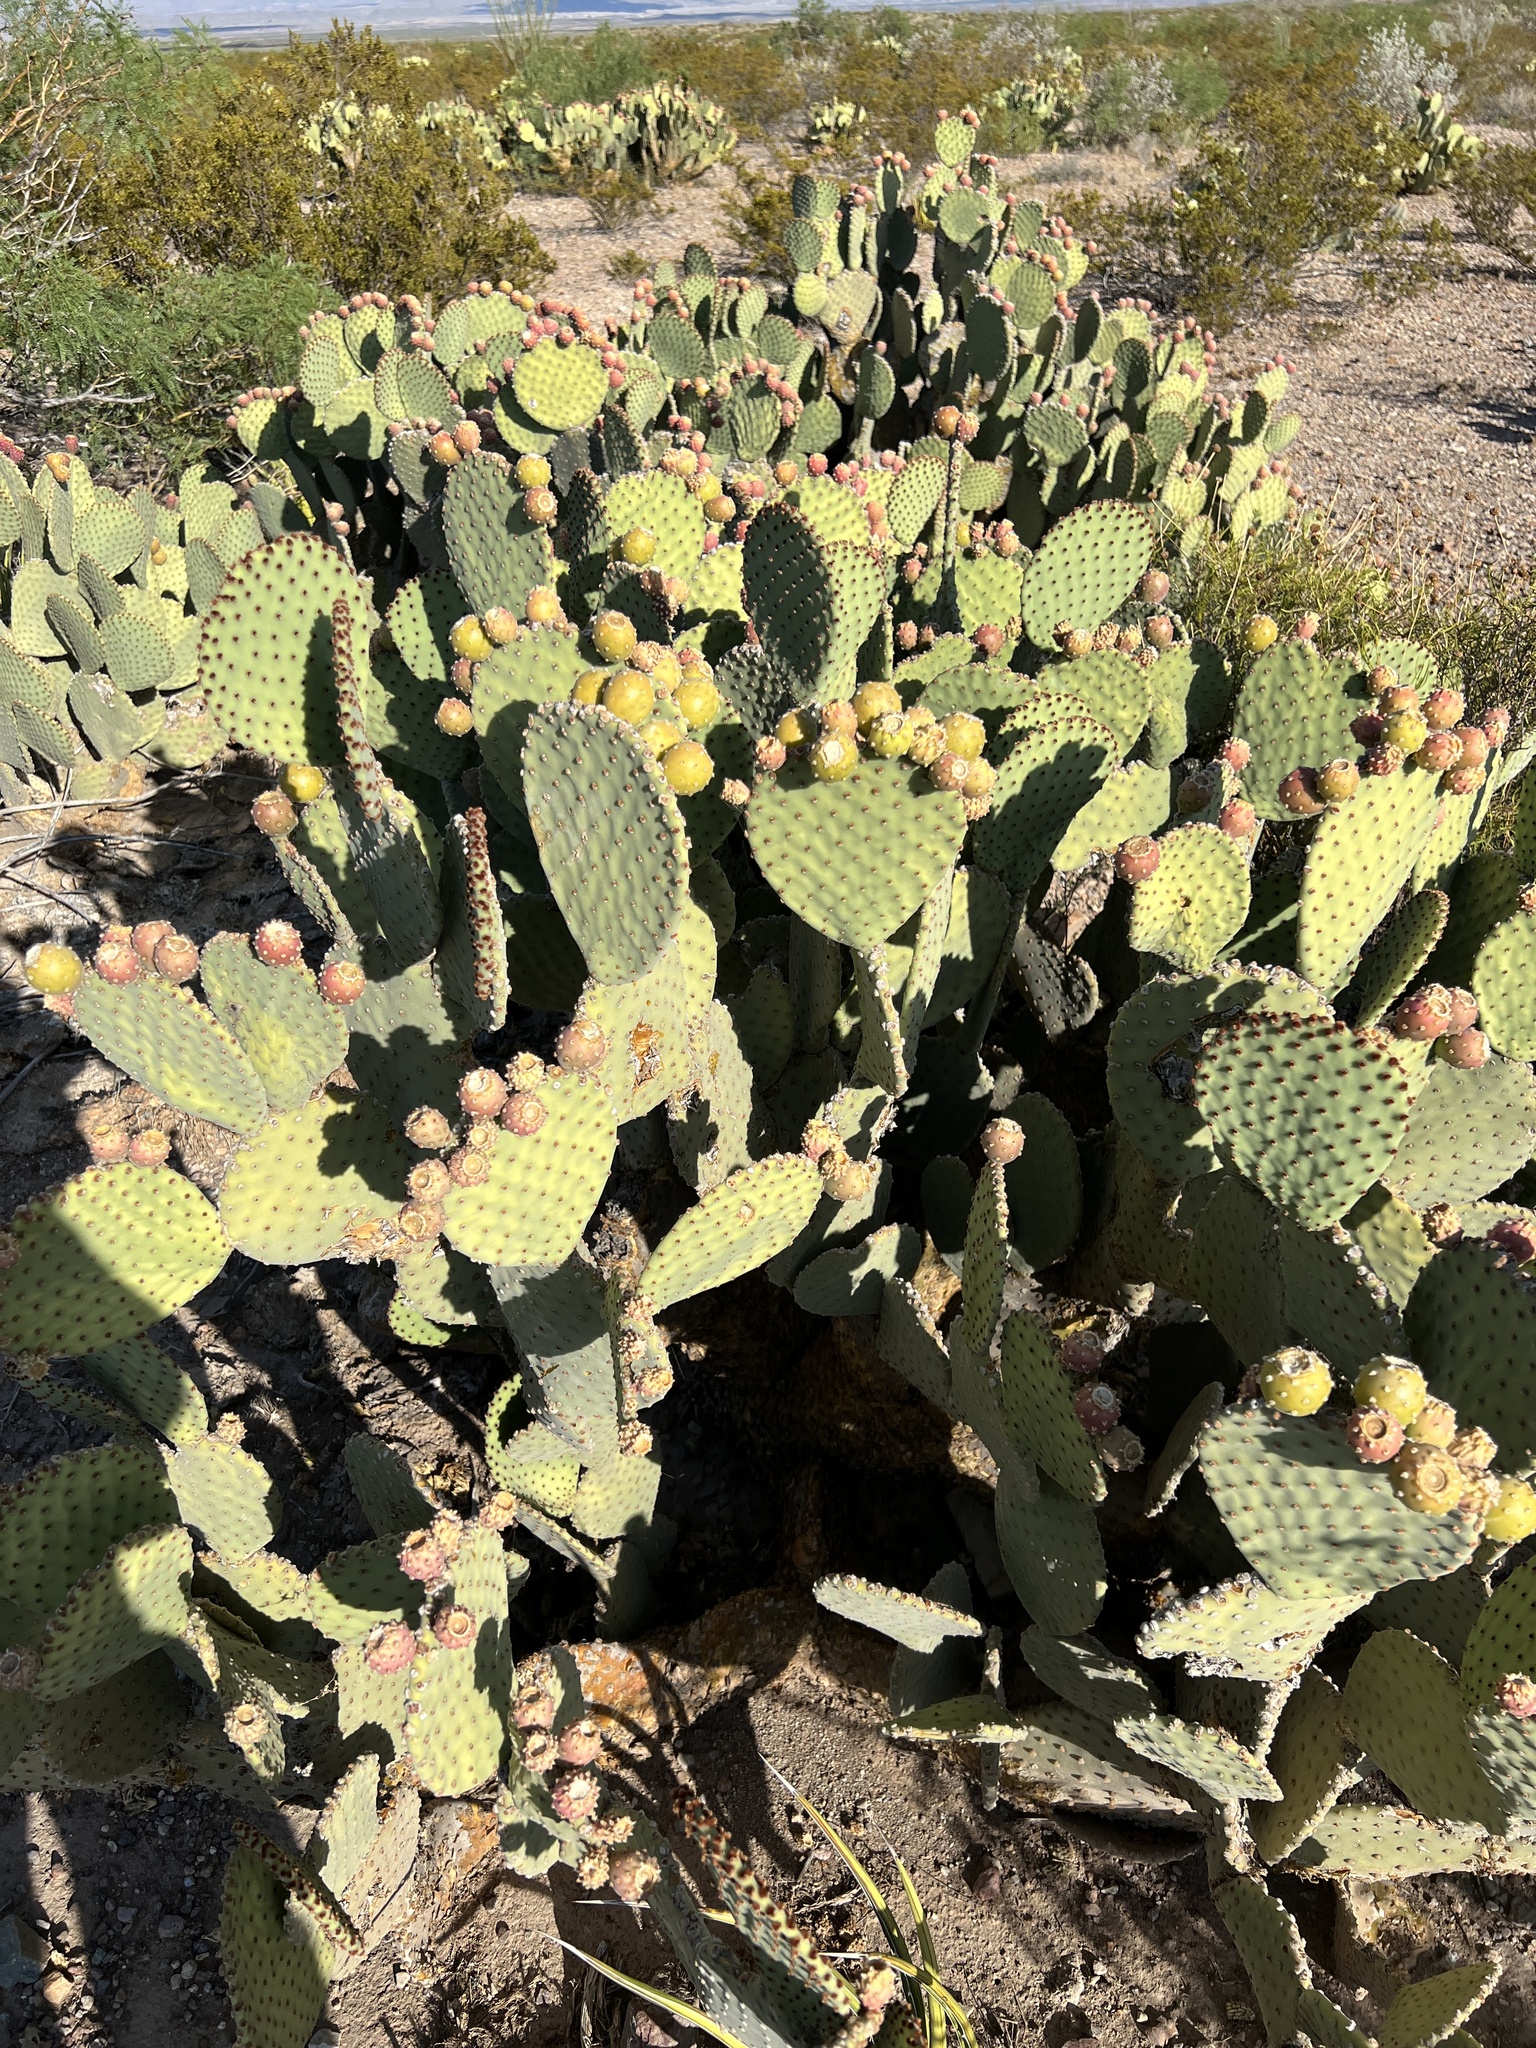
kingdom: Plantae
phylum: Tracheophyta
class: Magnoliopsida
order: Caryophyllales
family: Cactaceae
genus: Opuntia
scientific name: Opuntia rufida
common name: Blind pricklypear
